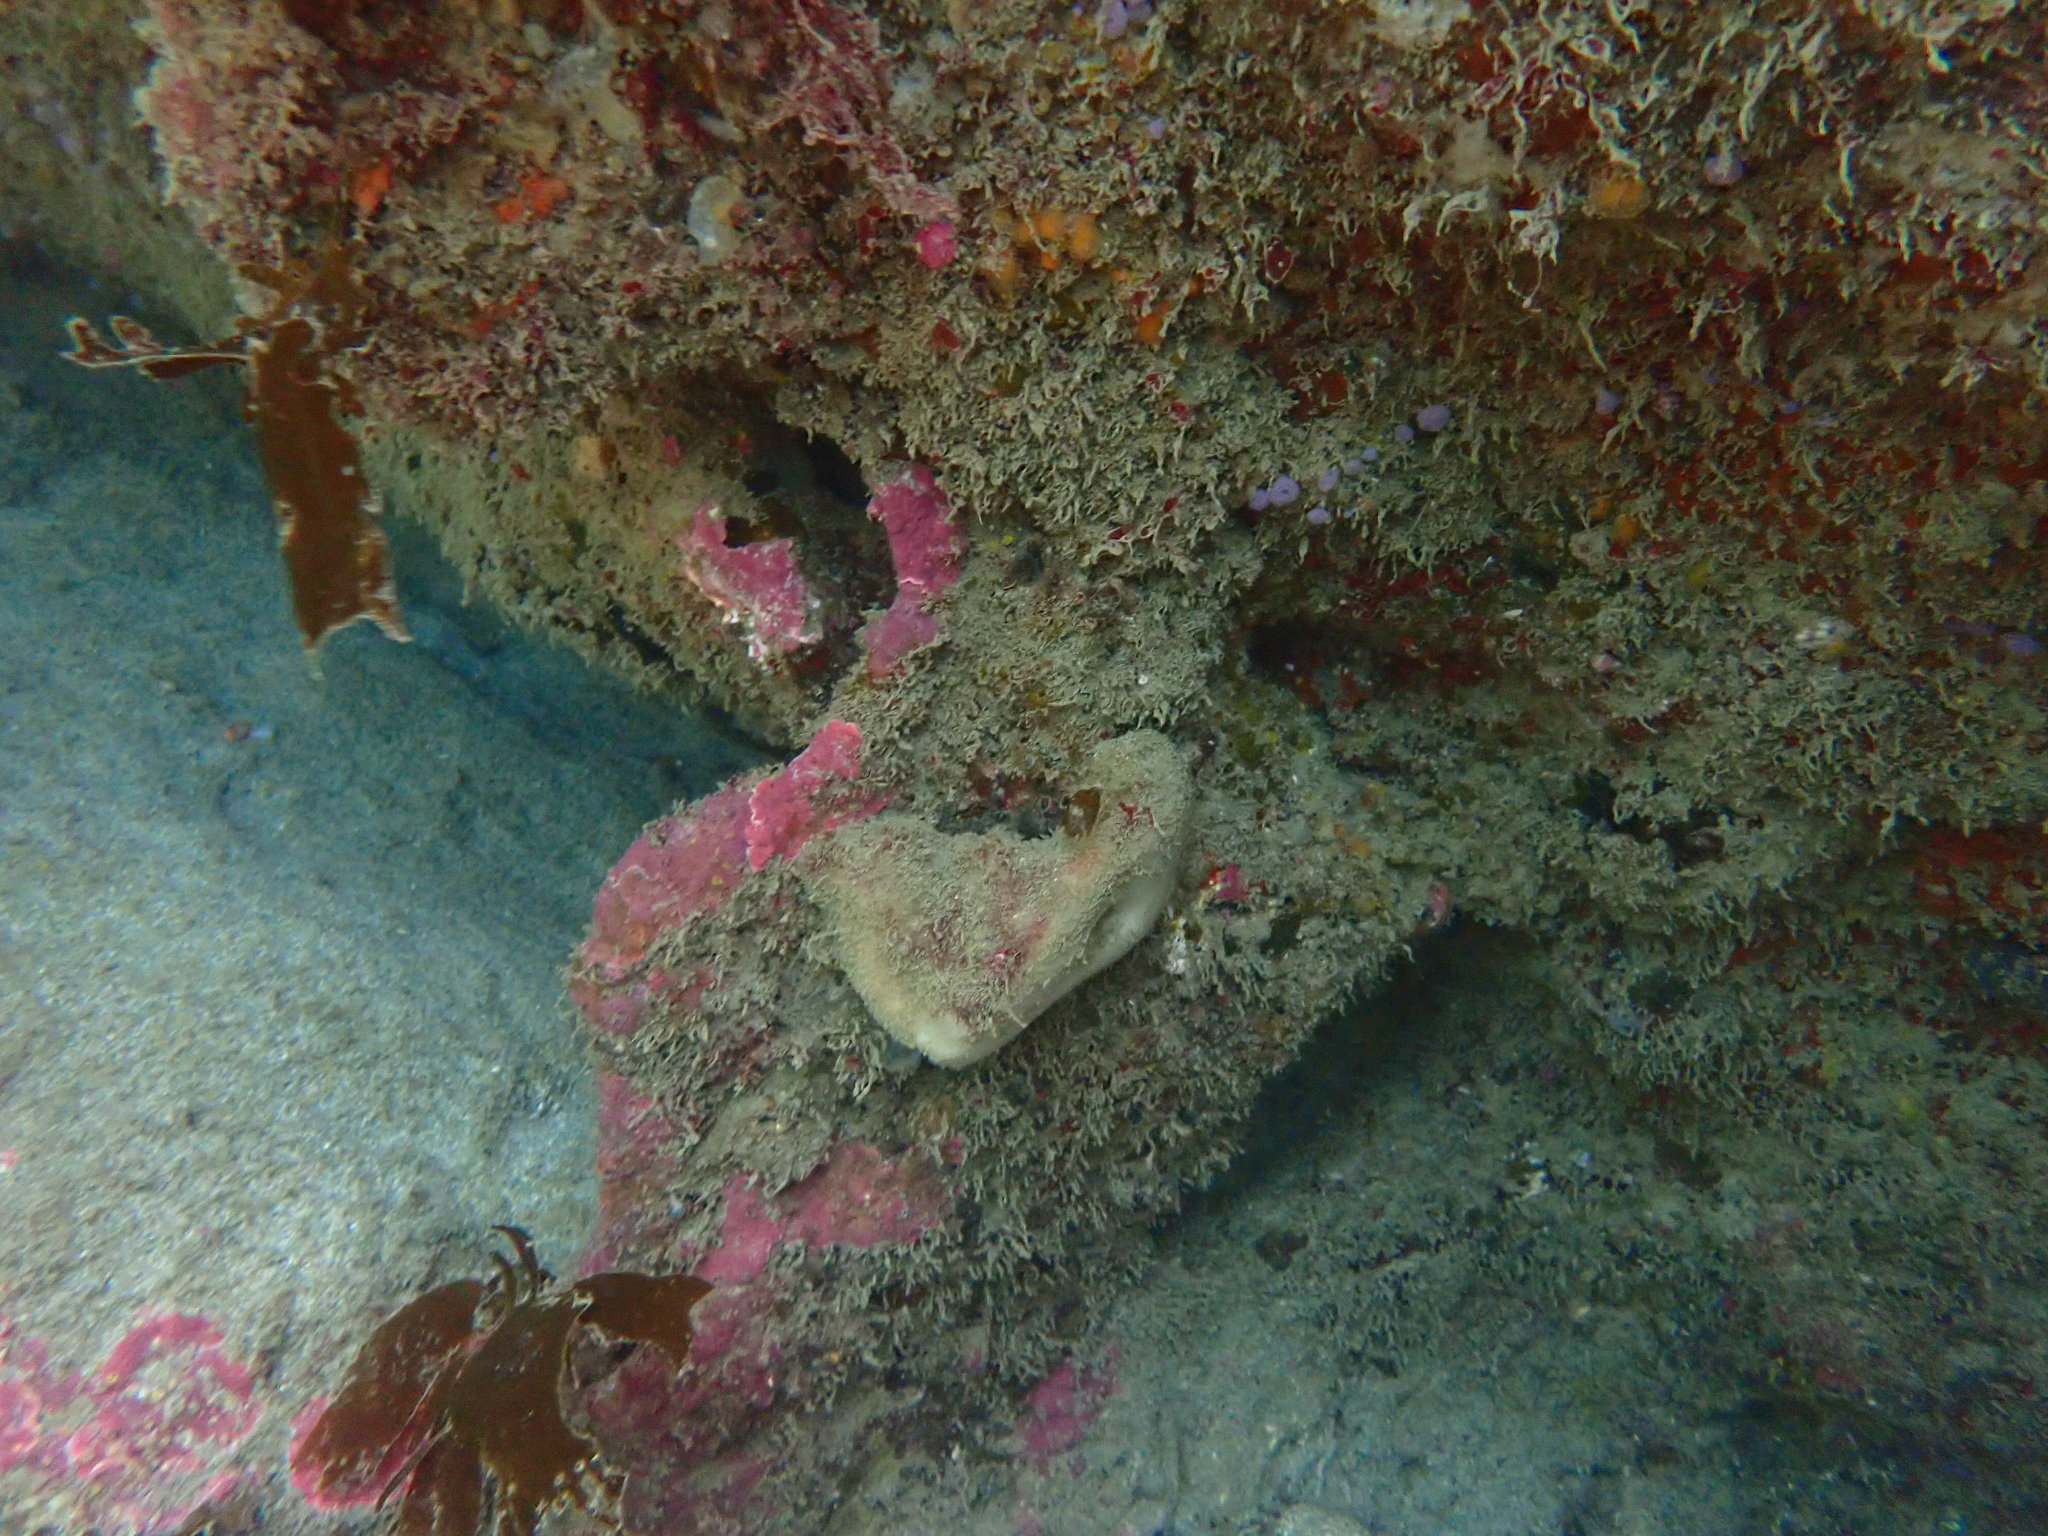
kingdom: Animalia
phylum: Chordata
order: Perciformes
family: Blenniidae
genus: Parablennius
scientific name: Parablennius laticlavius
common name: Crested blenny
